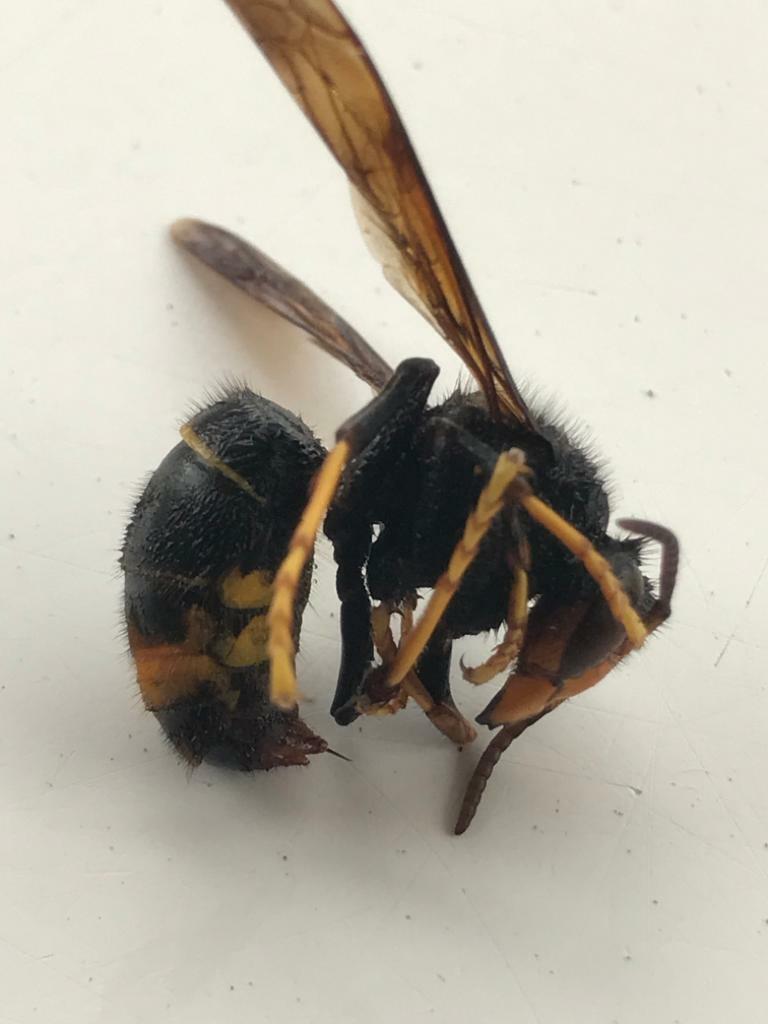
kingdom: Animalia
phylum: Arthropoda
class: Insecta
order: Hymenoptera
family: Vespidae
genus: Vespa
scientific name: Vespa velutina
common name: Asian hornet
